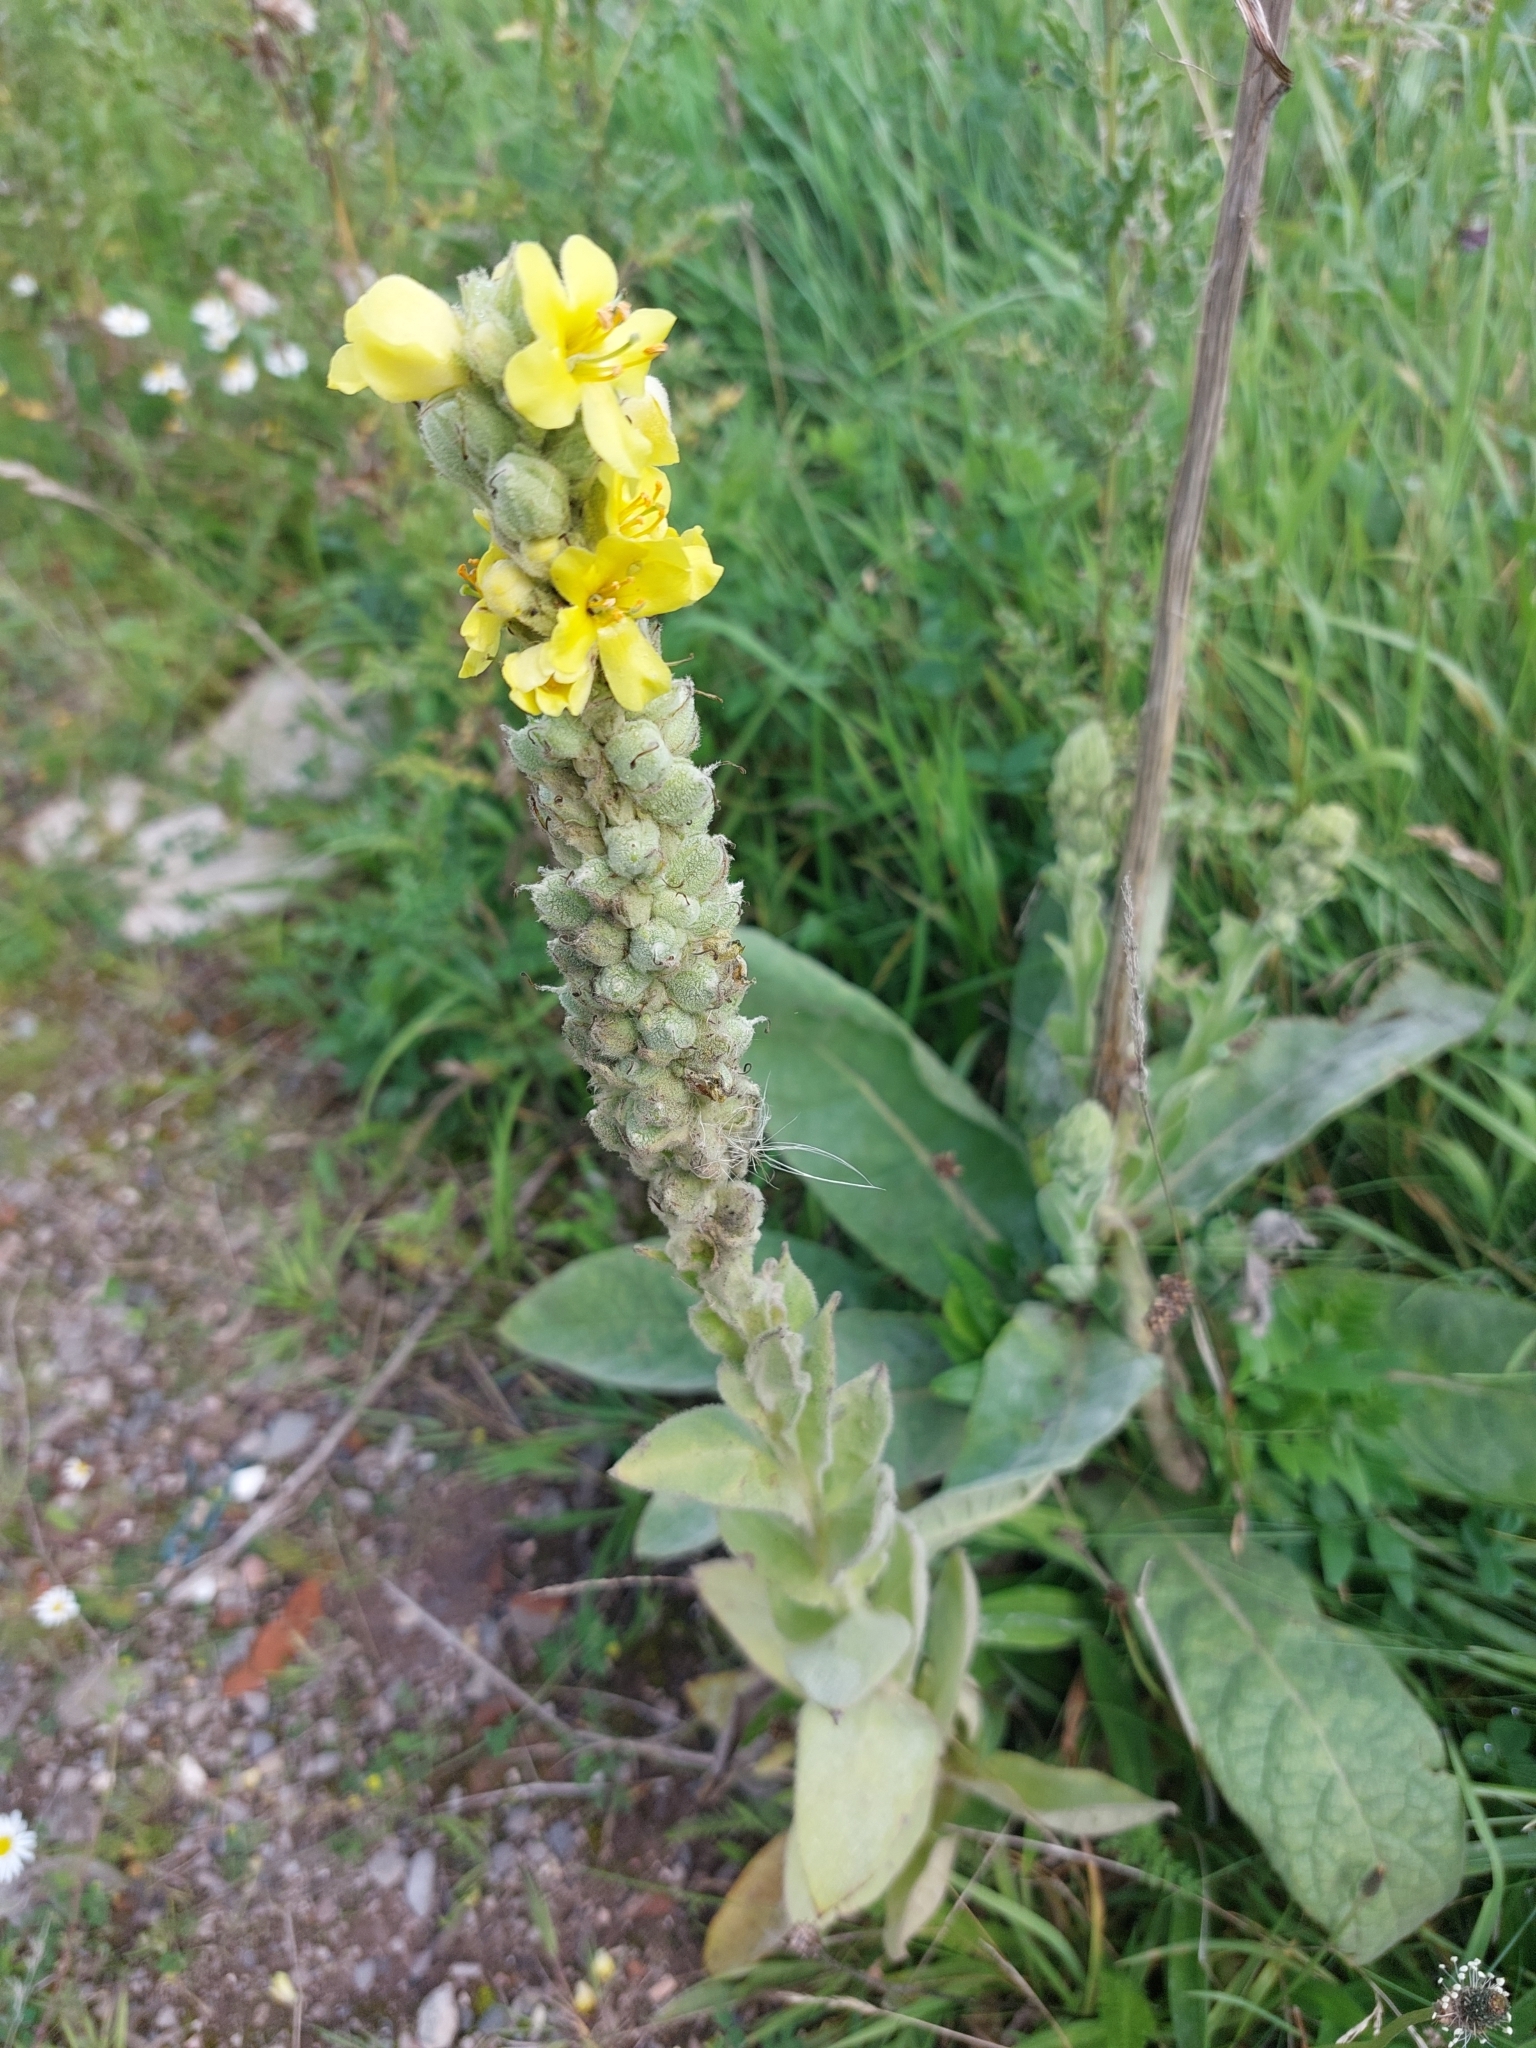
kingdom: Plantae
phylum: Tracheophyta
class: Magnoliopsida
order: Lamiales
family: Scrophulariaceae
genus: Verbascum
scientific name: Verbascum thapsus
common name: Common mullein
